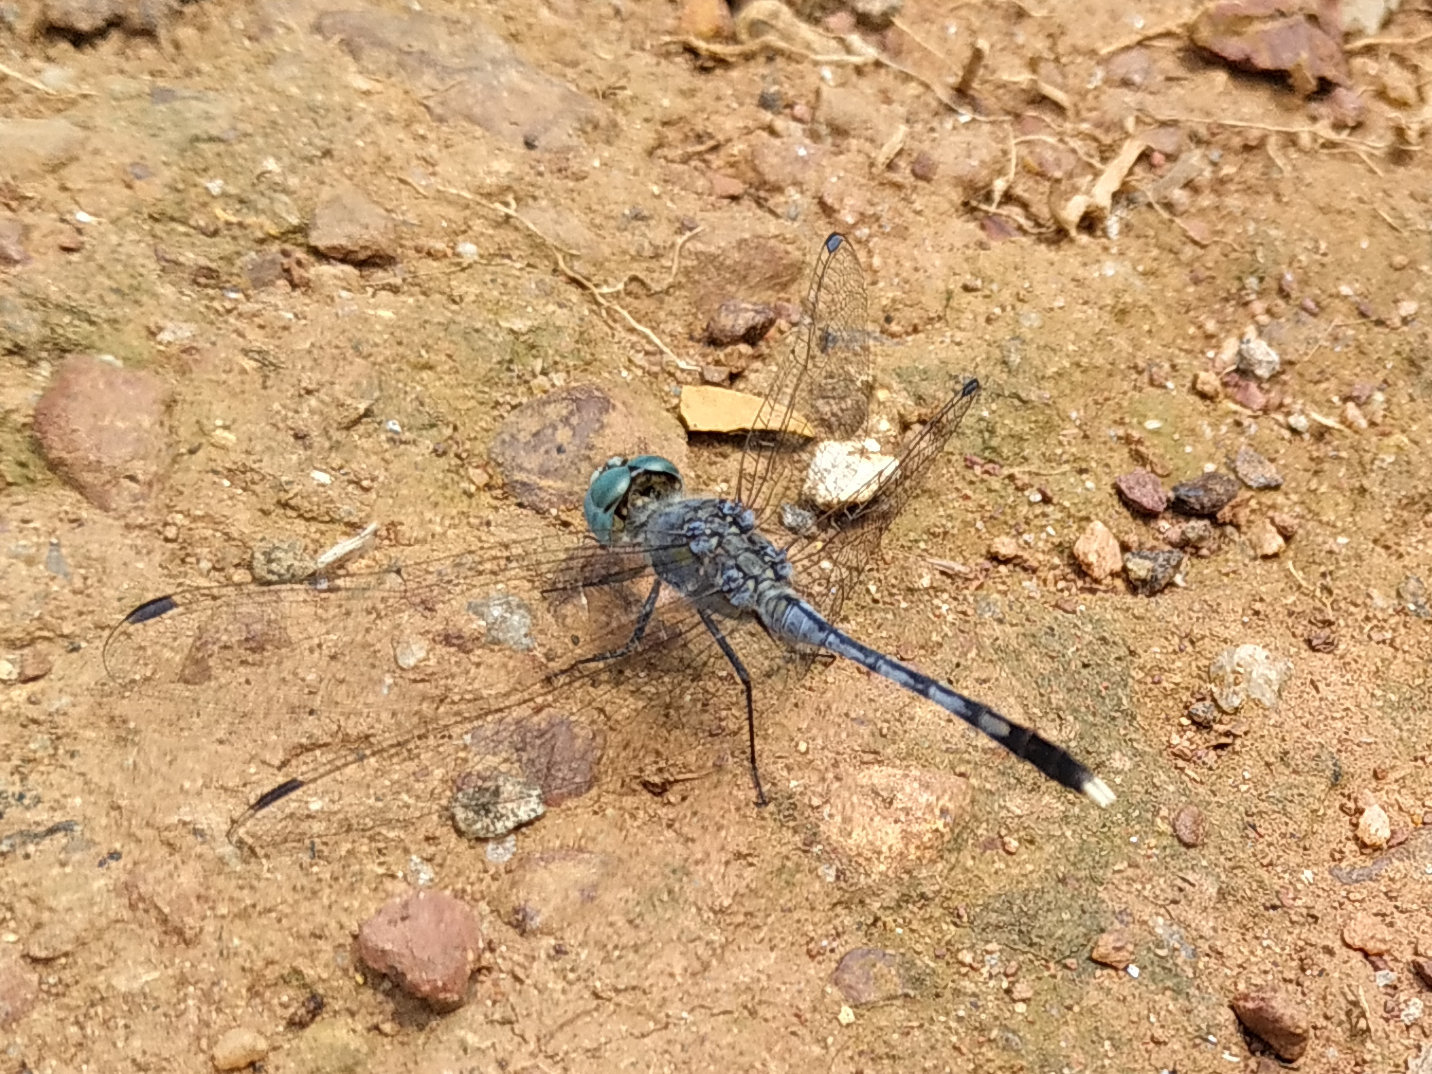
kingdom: Animalia
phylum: Arthropoda
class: Insecta
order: Odonata
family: Libellulidae
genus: Diplacodes
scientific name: Diplacodes trivialis
